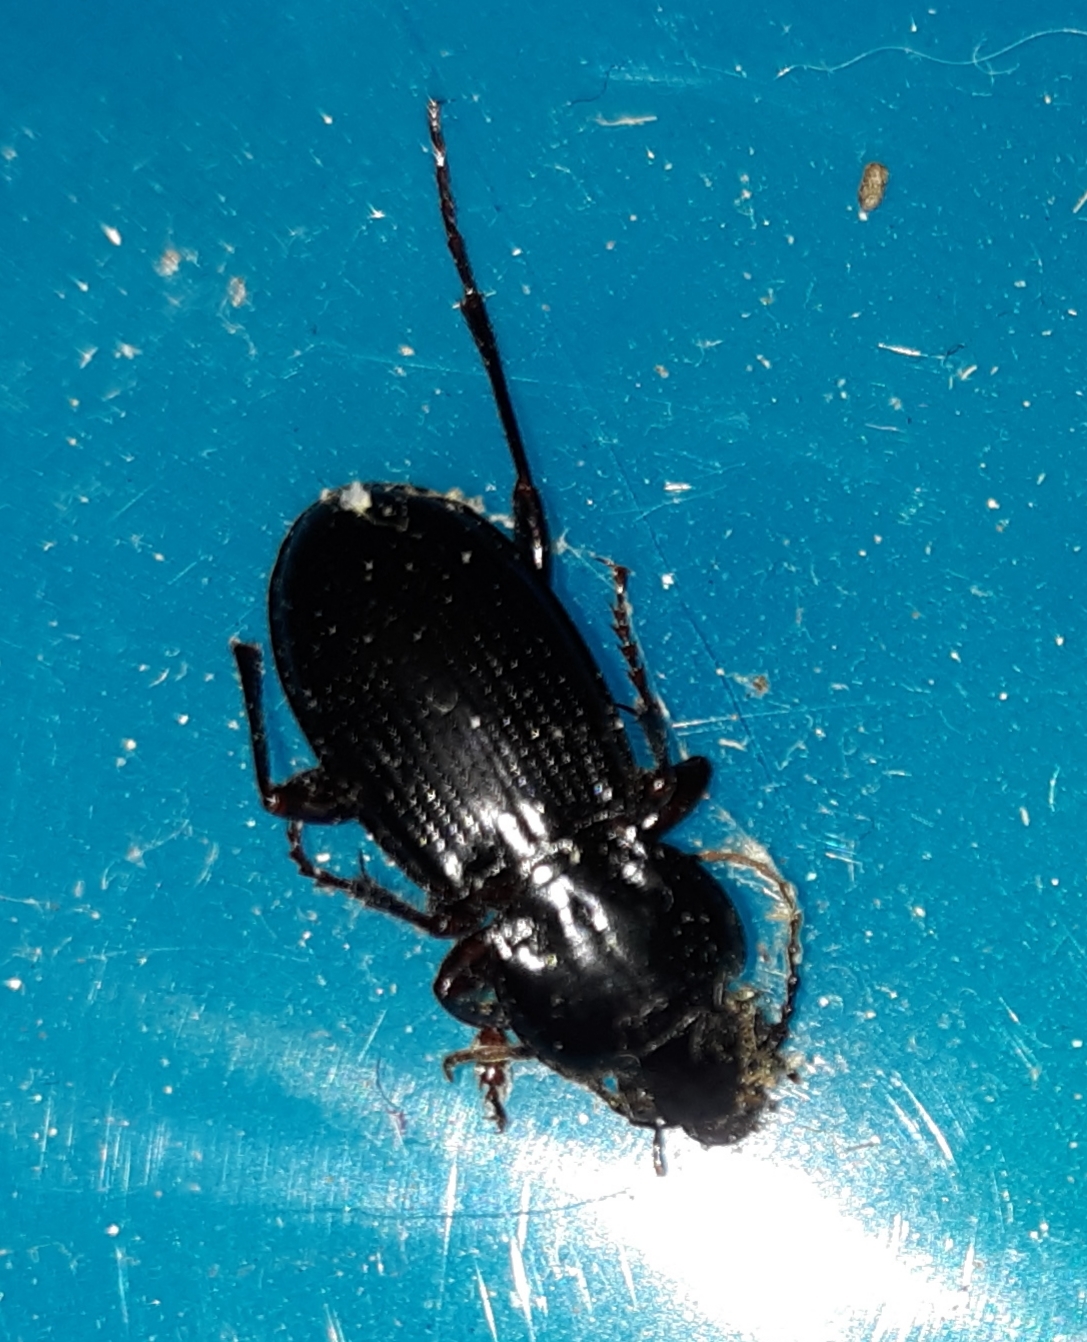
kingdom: Animalia
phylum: Arthropoda
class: Insecta
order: Coleoptera
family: Carabidae
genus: Cyclotrachelus
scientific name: Cyclotrachelus seximpressus
